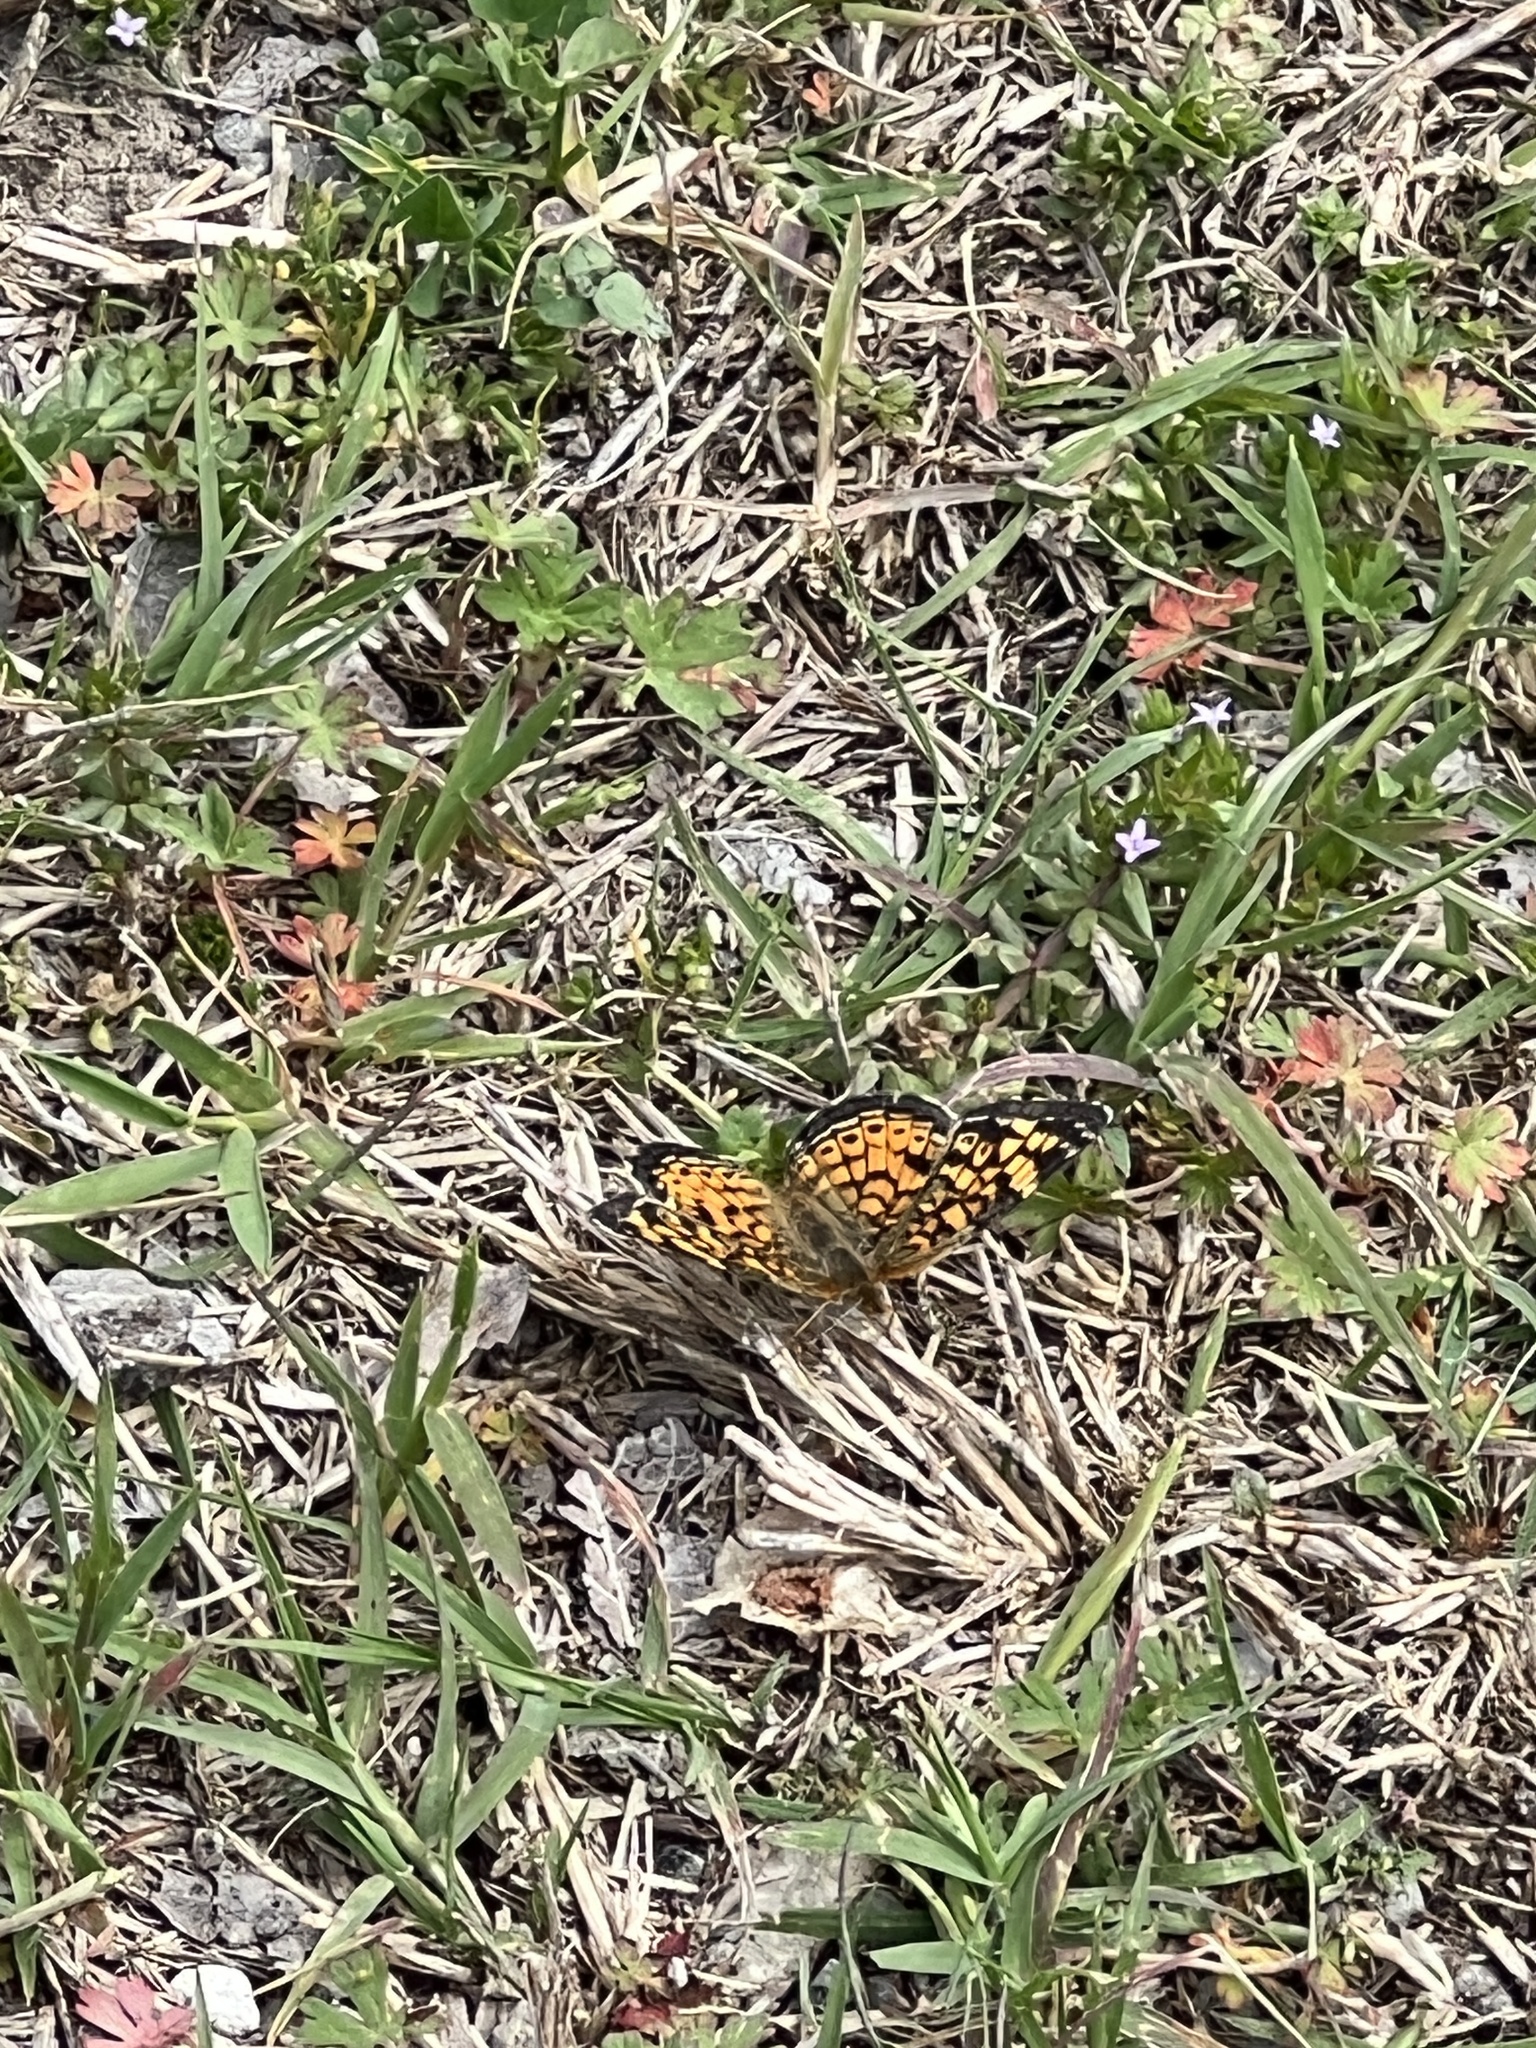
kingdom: Animalia
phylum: Arthropoda
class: Insecta
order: Lepidoptera
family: Nymphalidae
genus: Phyciodes
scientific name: Phyciodes tharos
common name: Pearl crescent
